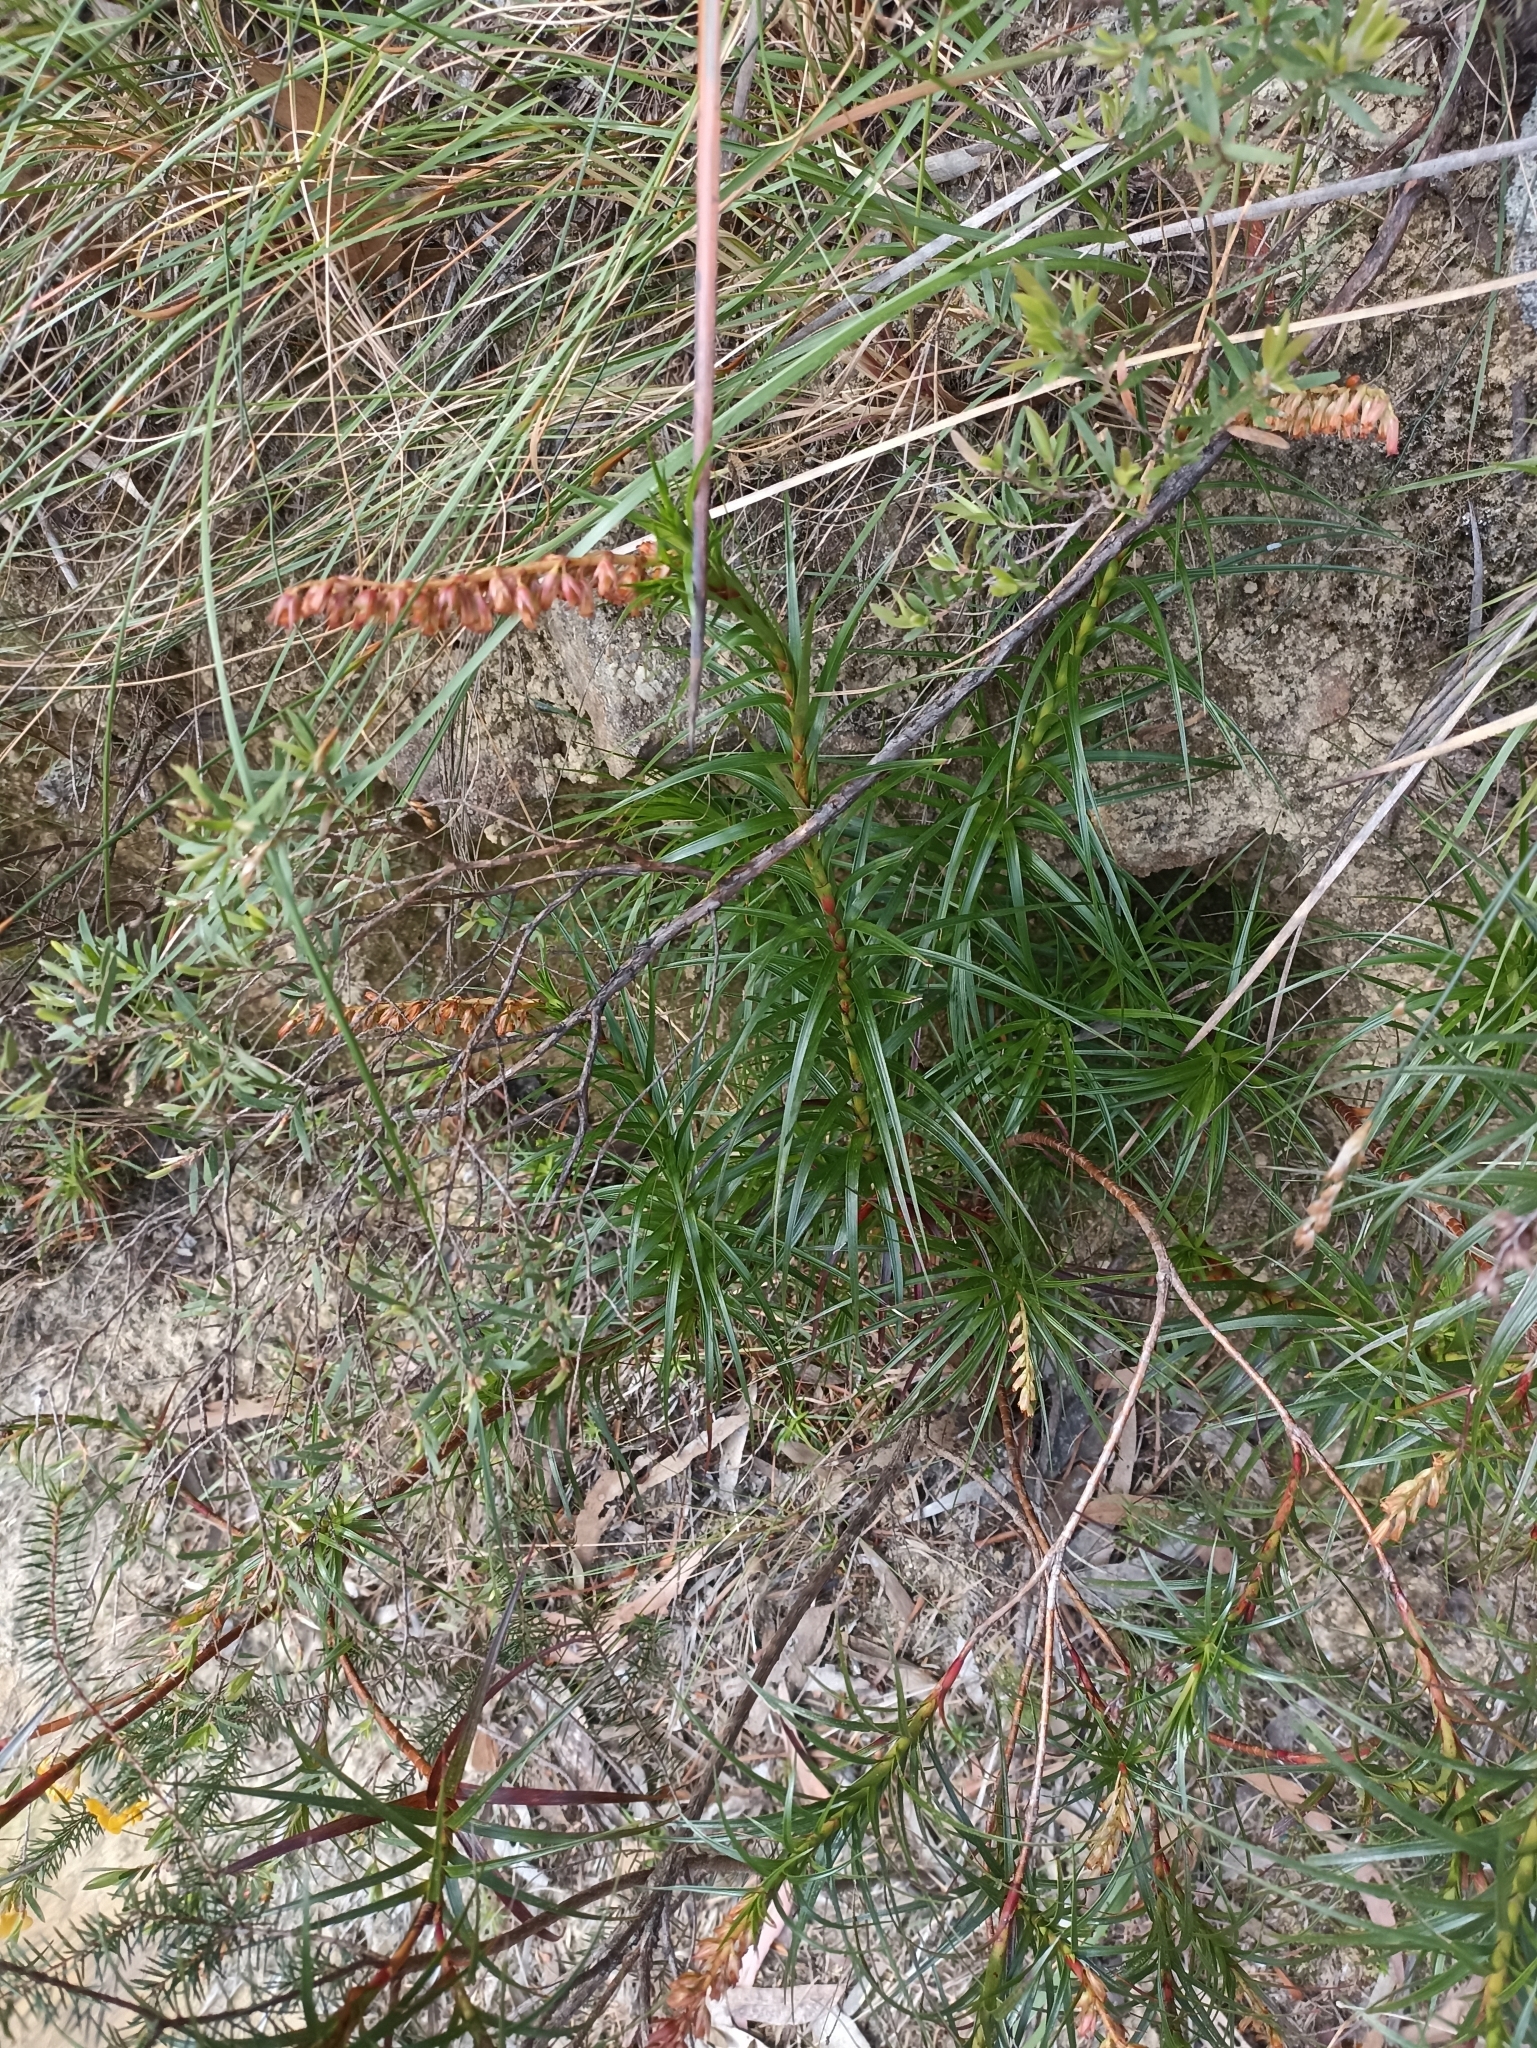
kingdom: Plantae
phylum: Tracheophyta
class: Magnoliopsida
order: Ericales
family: Ericaceae
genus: Dracophyllum
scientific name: Dracophyllum secundum
